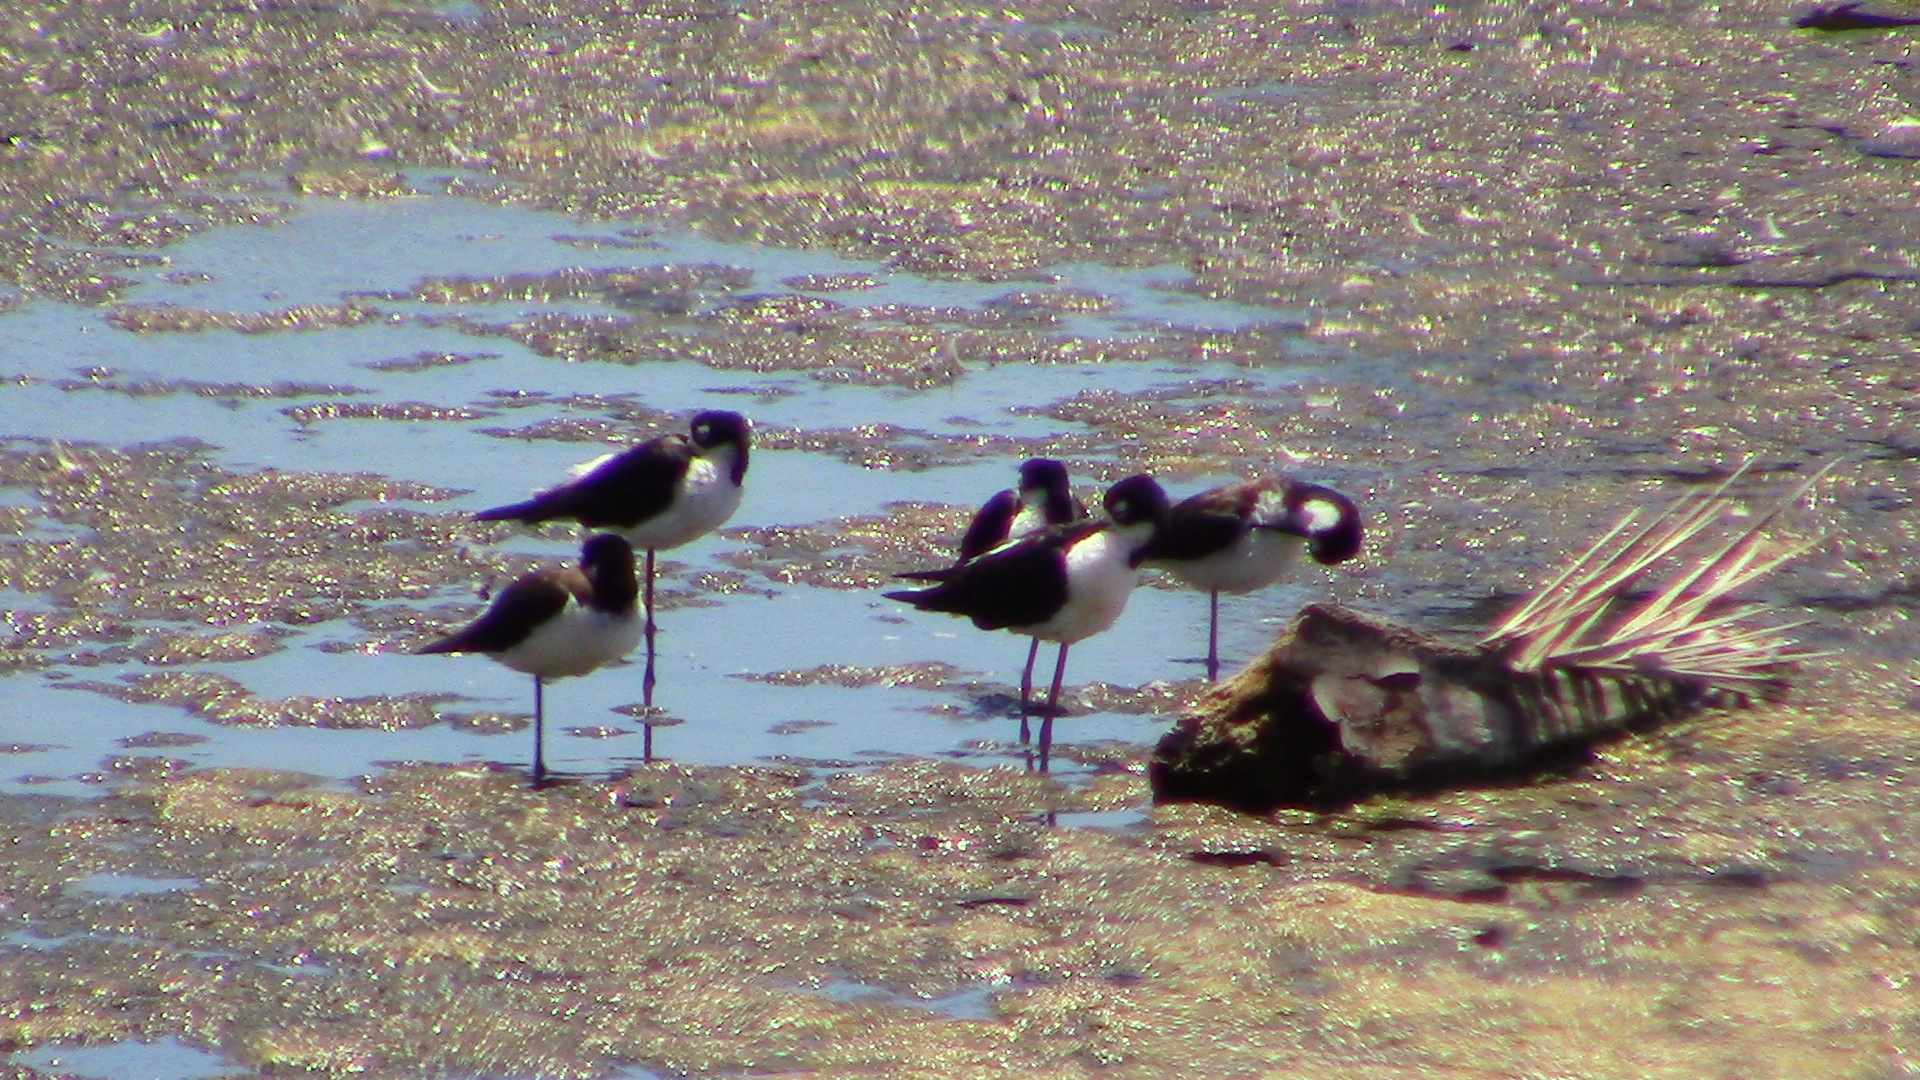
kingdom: Animalia
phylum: Chordata
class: Aves
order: Charadriiformes
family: Recurvirostridae
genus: Himantopus
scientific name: Himantopus mexicanus
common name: Black-necked stilt
